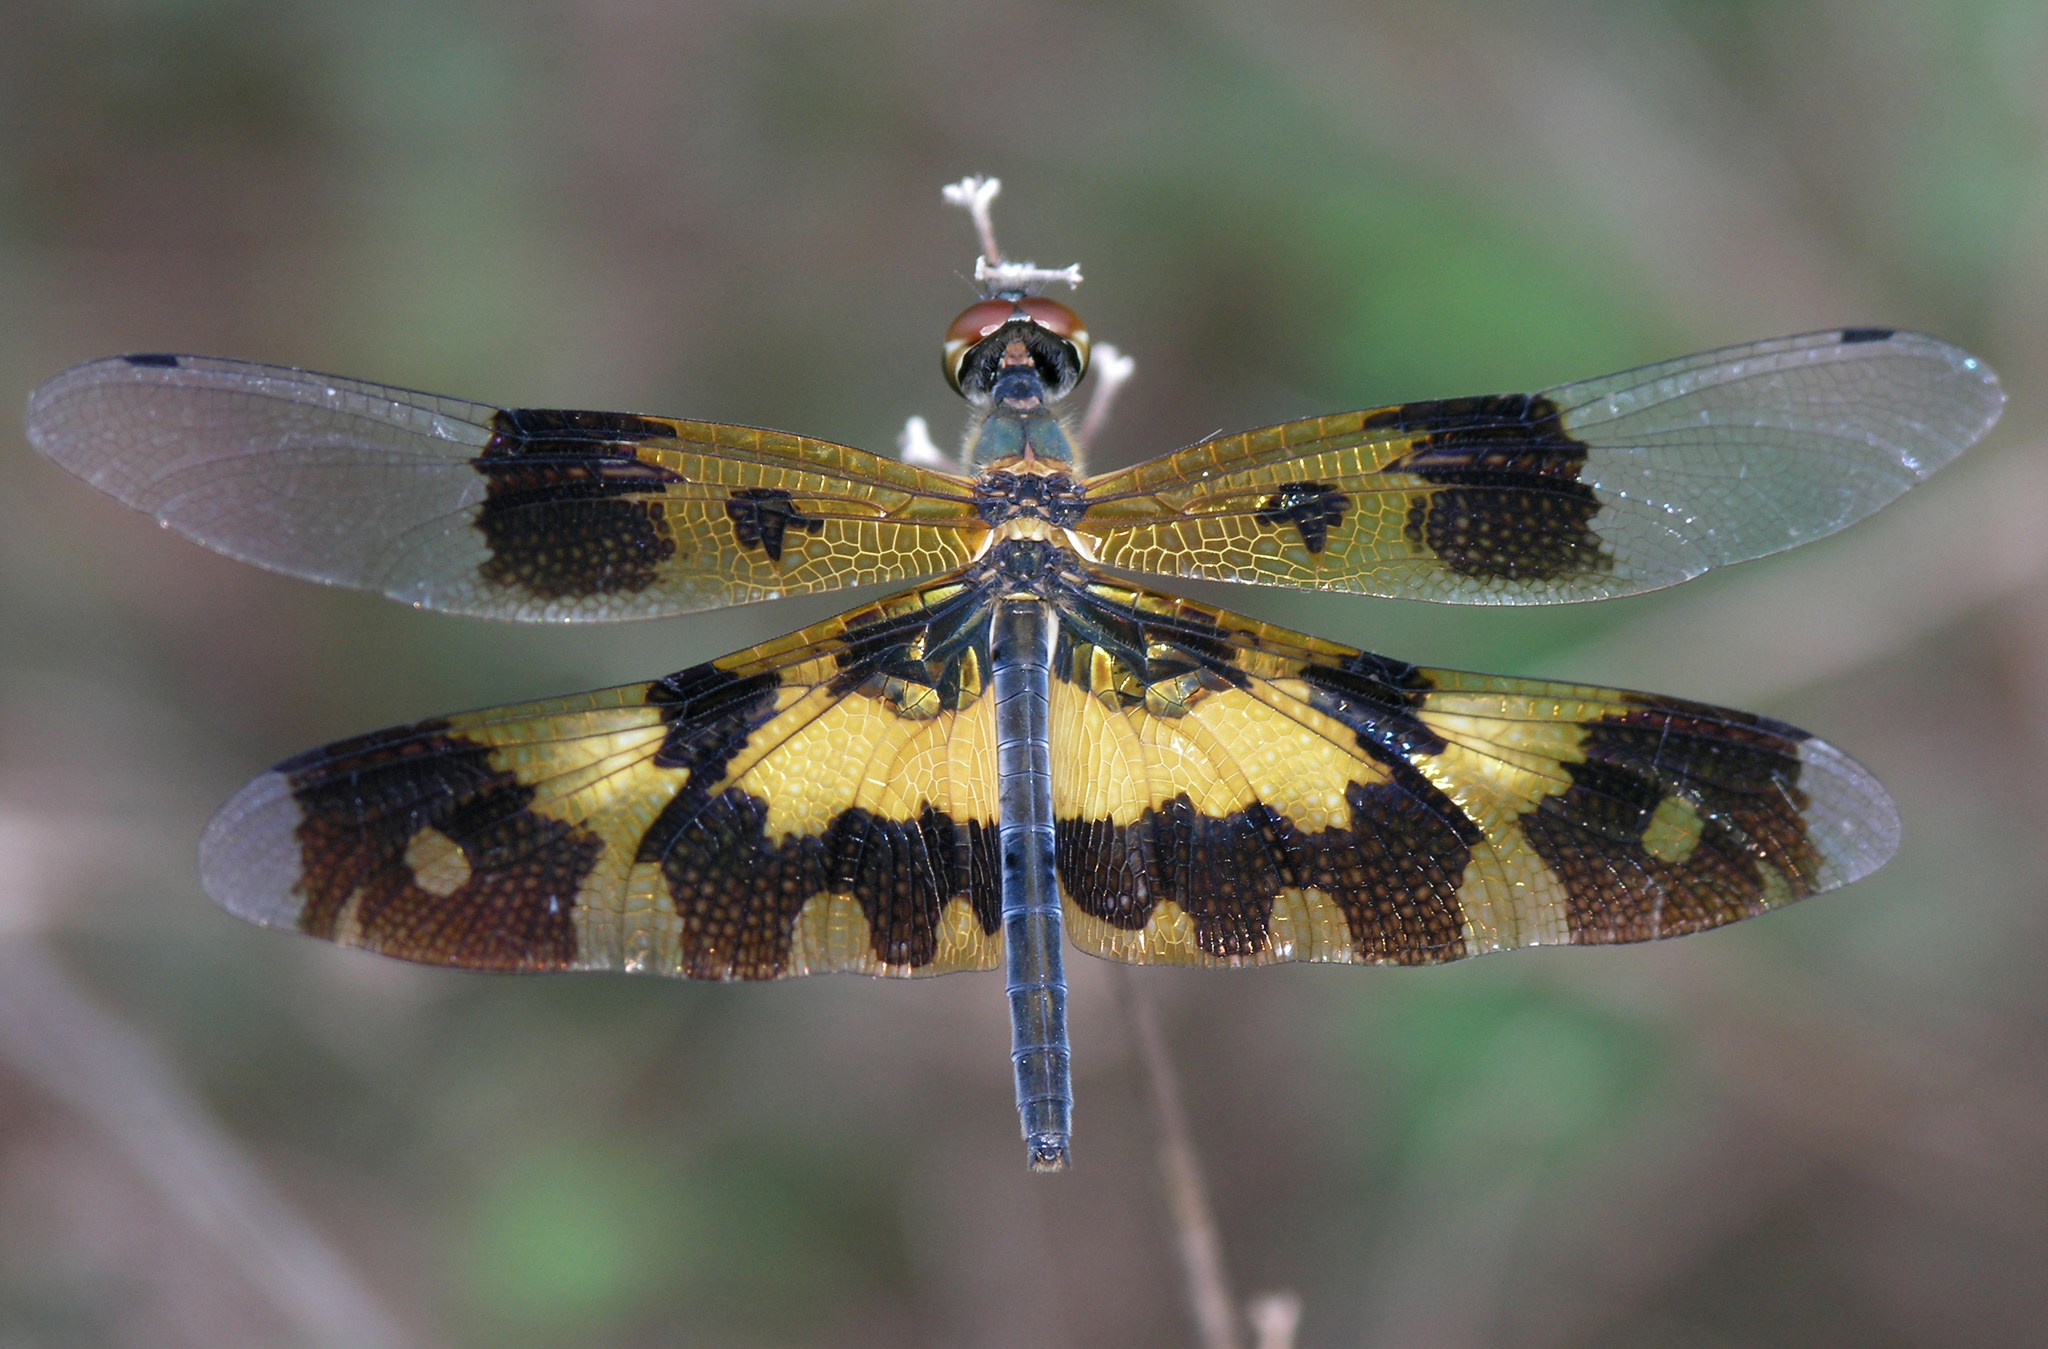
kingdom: Animalia
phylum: Arthropoda
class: Insecta
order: Odonata
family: Libellulidae
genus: Rhyothemis
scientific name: Rhyothemis variegata
